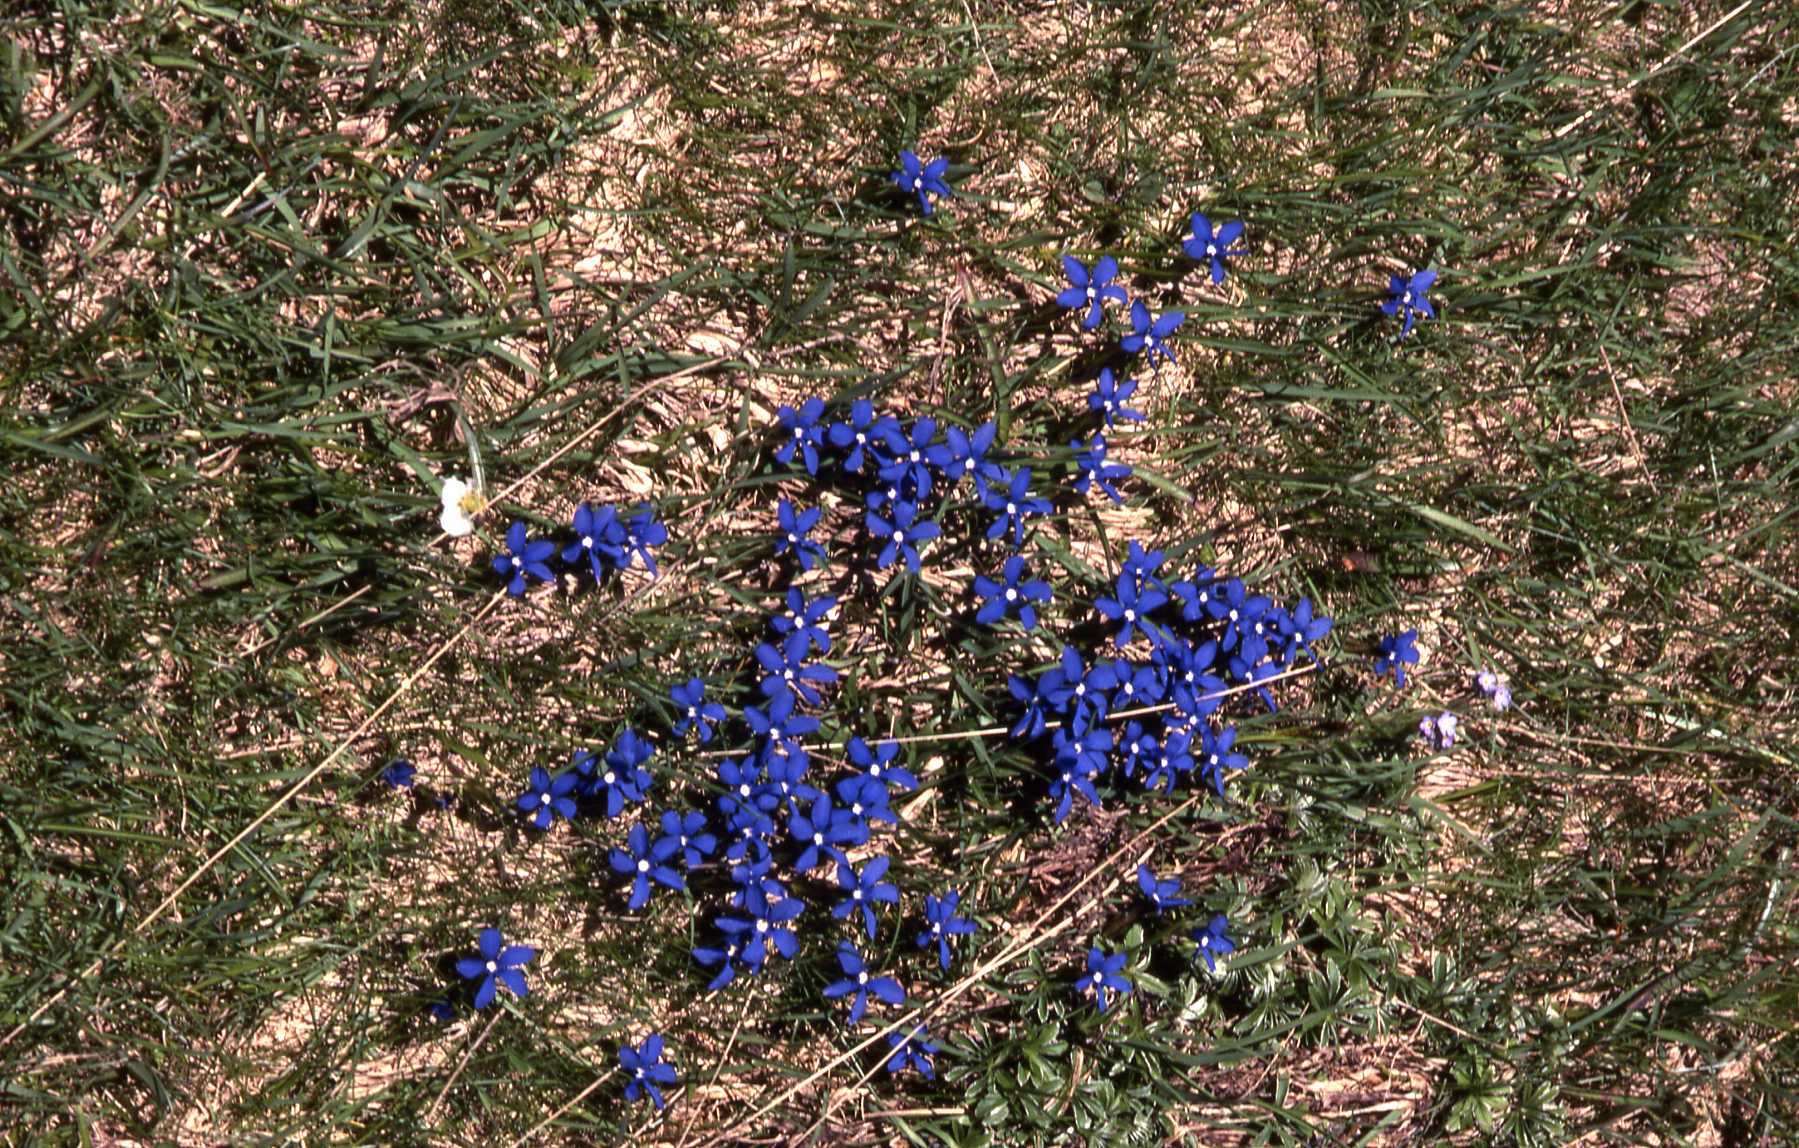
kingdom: Plantae
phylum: Tracheophyta
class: Magnoliopsida
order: Gentianales
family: Gentianaceae
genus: Gentiana
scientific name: Gentiana verna
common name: Spring gentian
